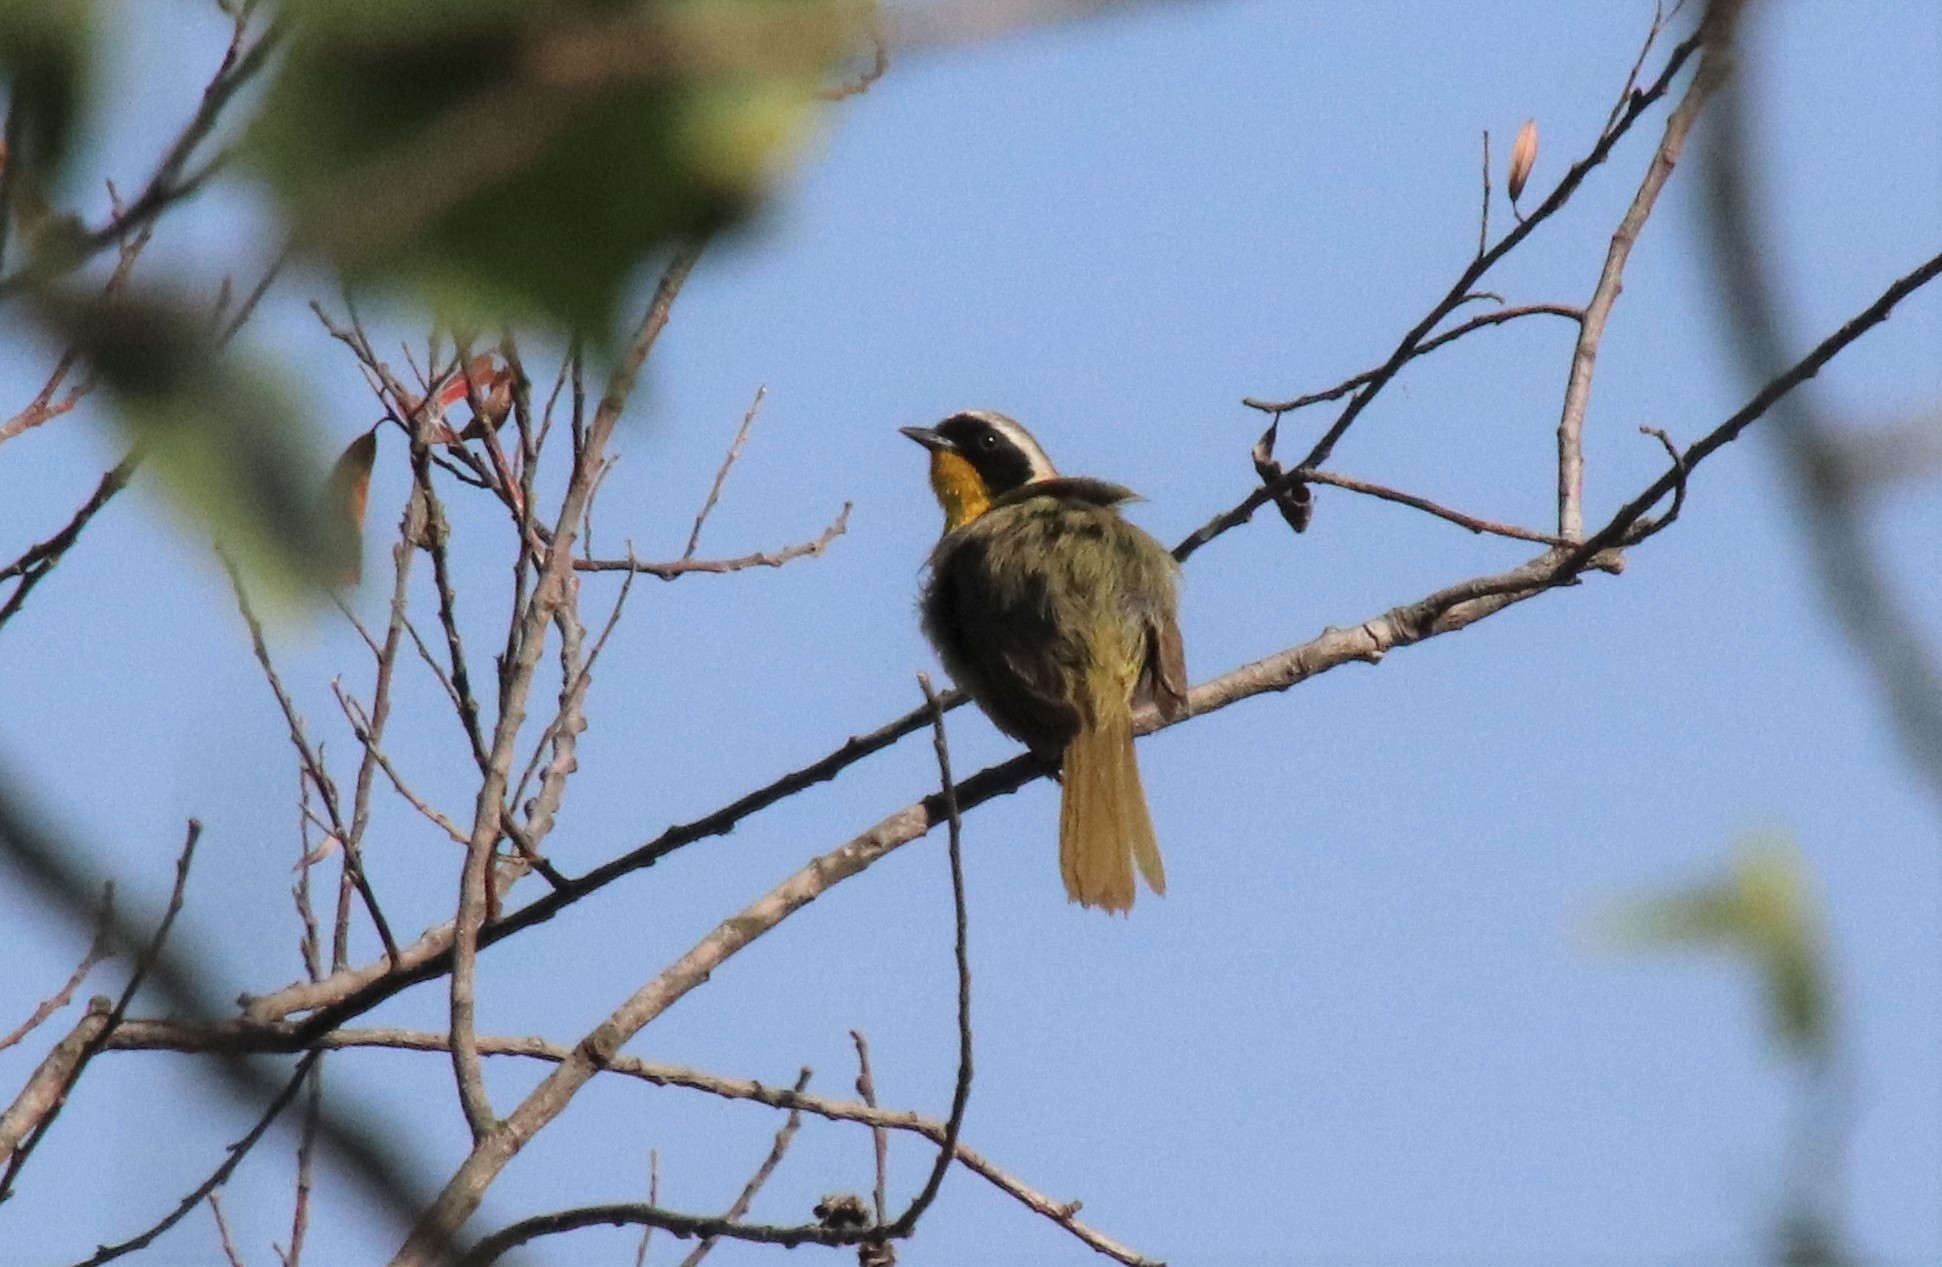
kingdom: Animalia
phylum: Chordata
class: Aves
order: Passeriformes
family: Parulidae
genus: Geothlypis
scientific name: Geothlypis trichas
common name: Common yellowthroat
